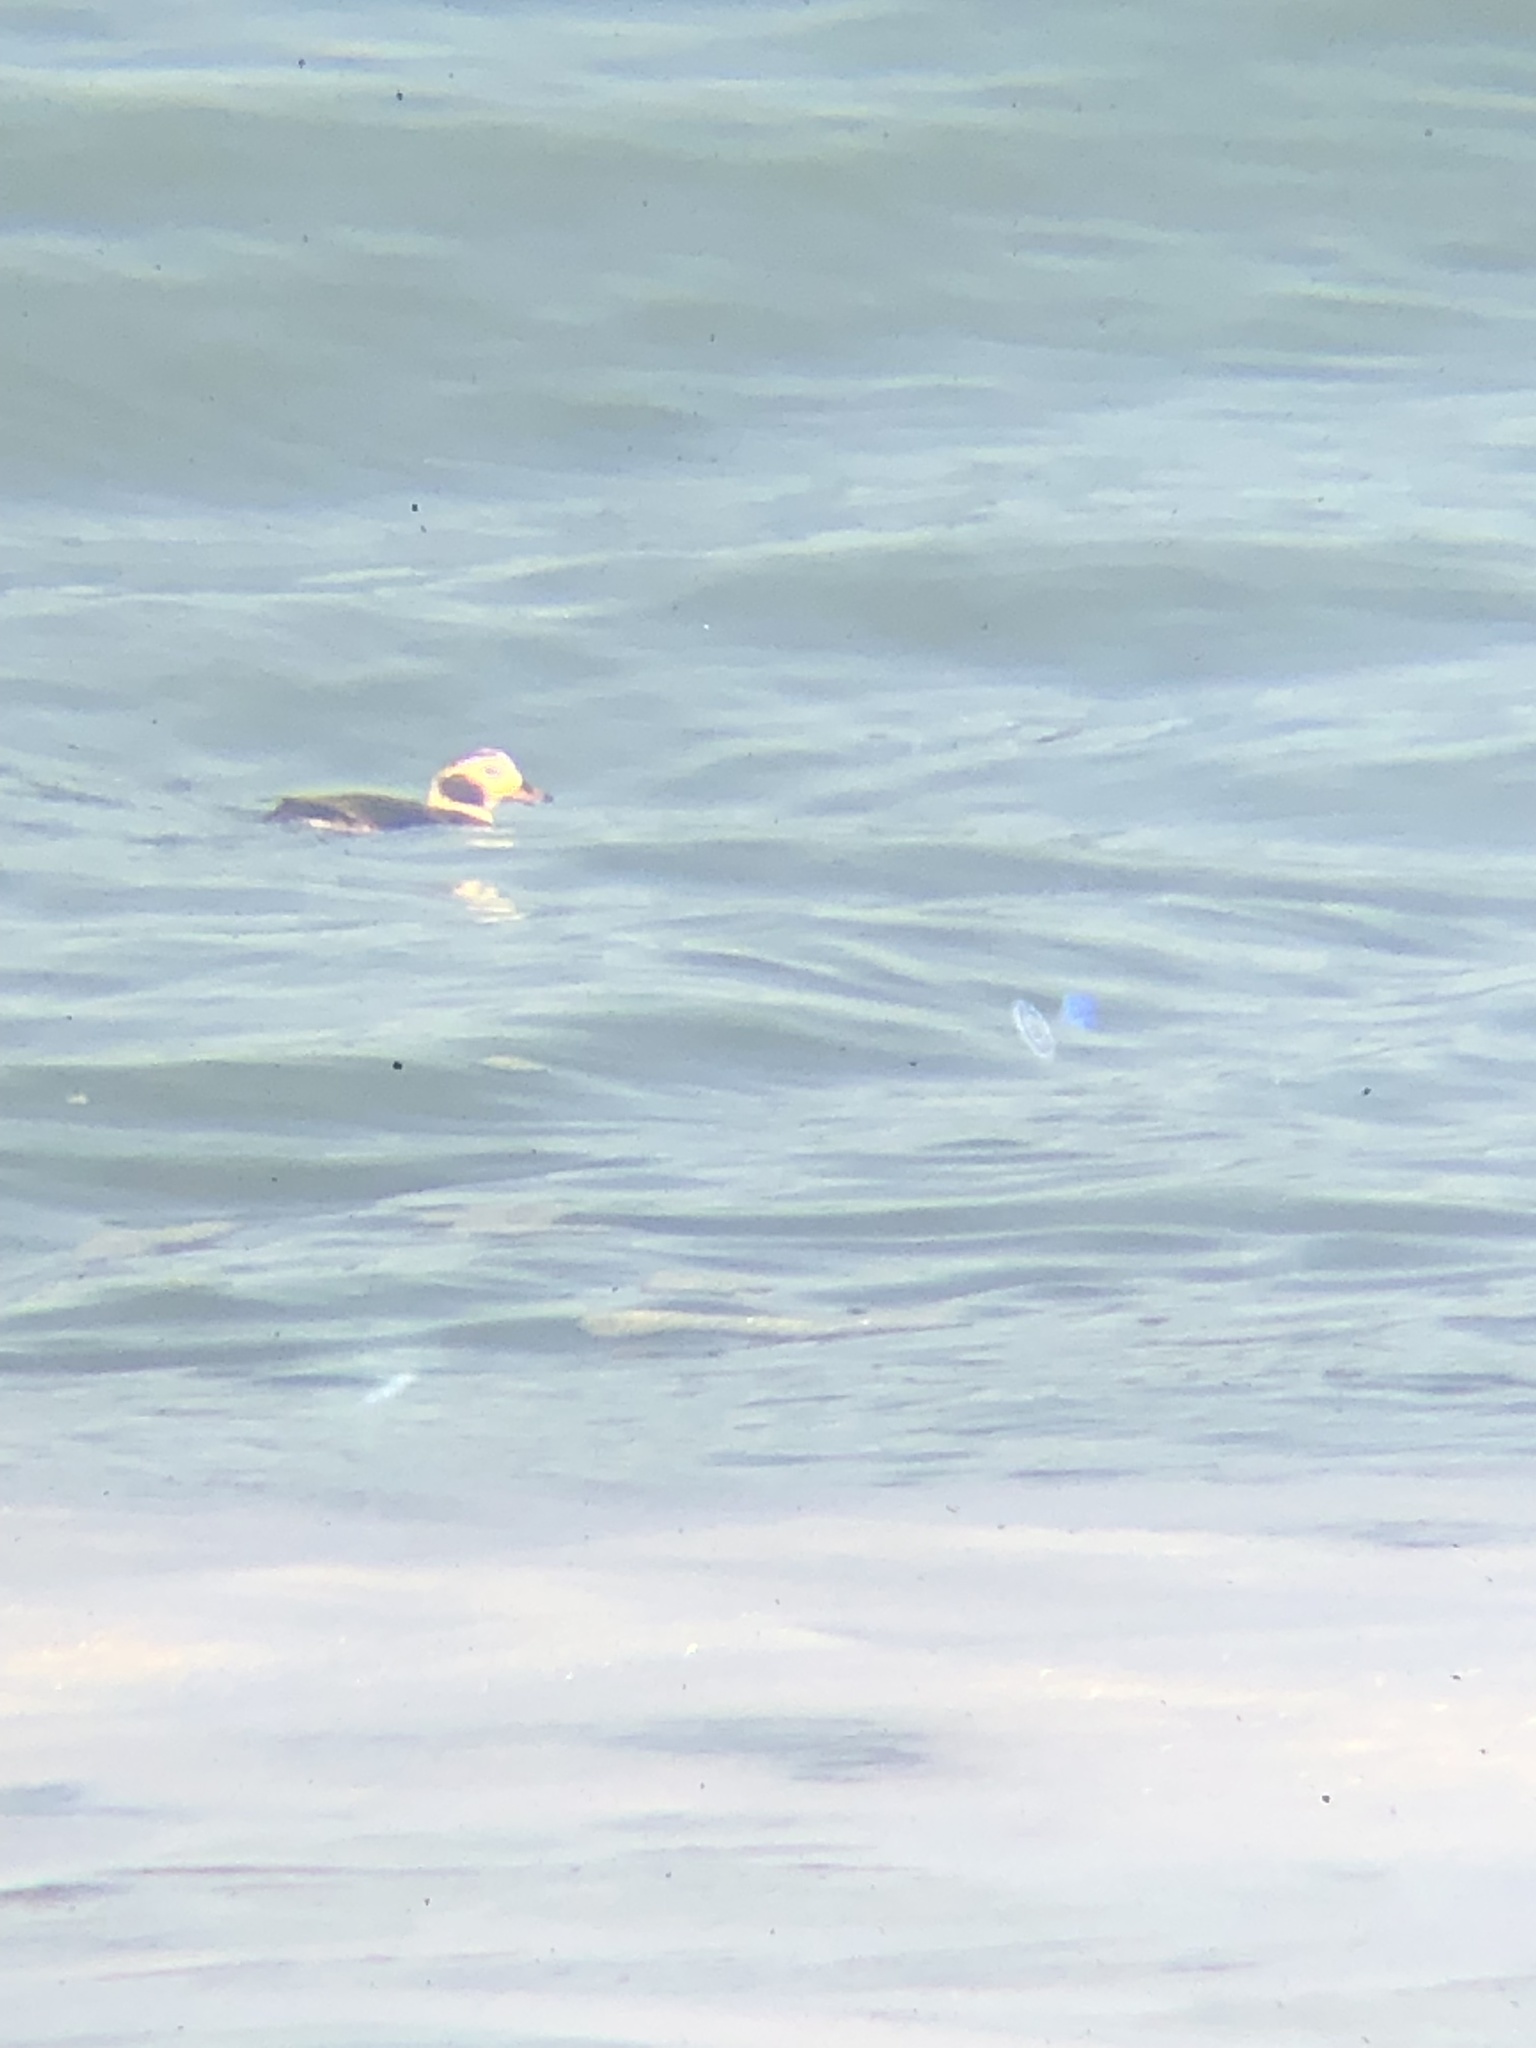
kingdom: Animalia
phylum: Chordata
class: Aves
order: Anseriformes
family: Anatidae
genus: Clangula
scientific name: Clangula hyemalis
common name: Long-tailed duck
